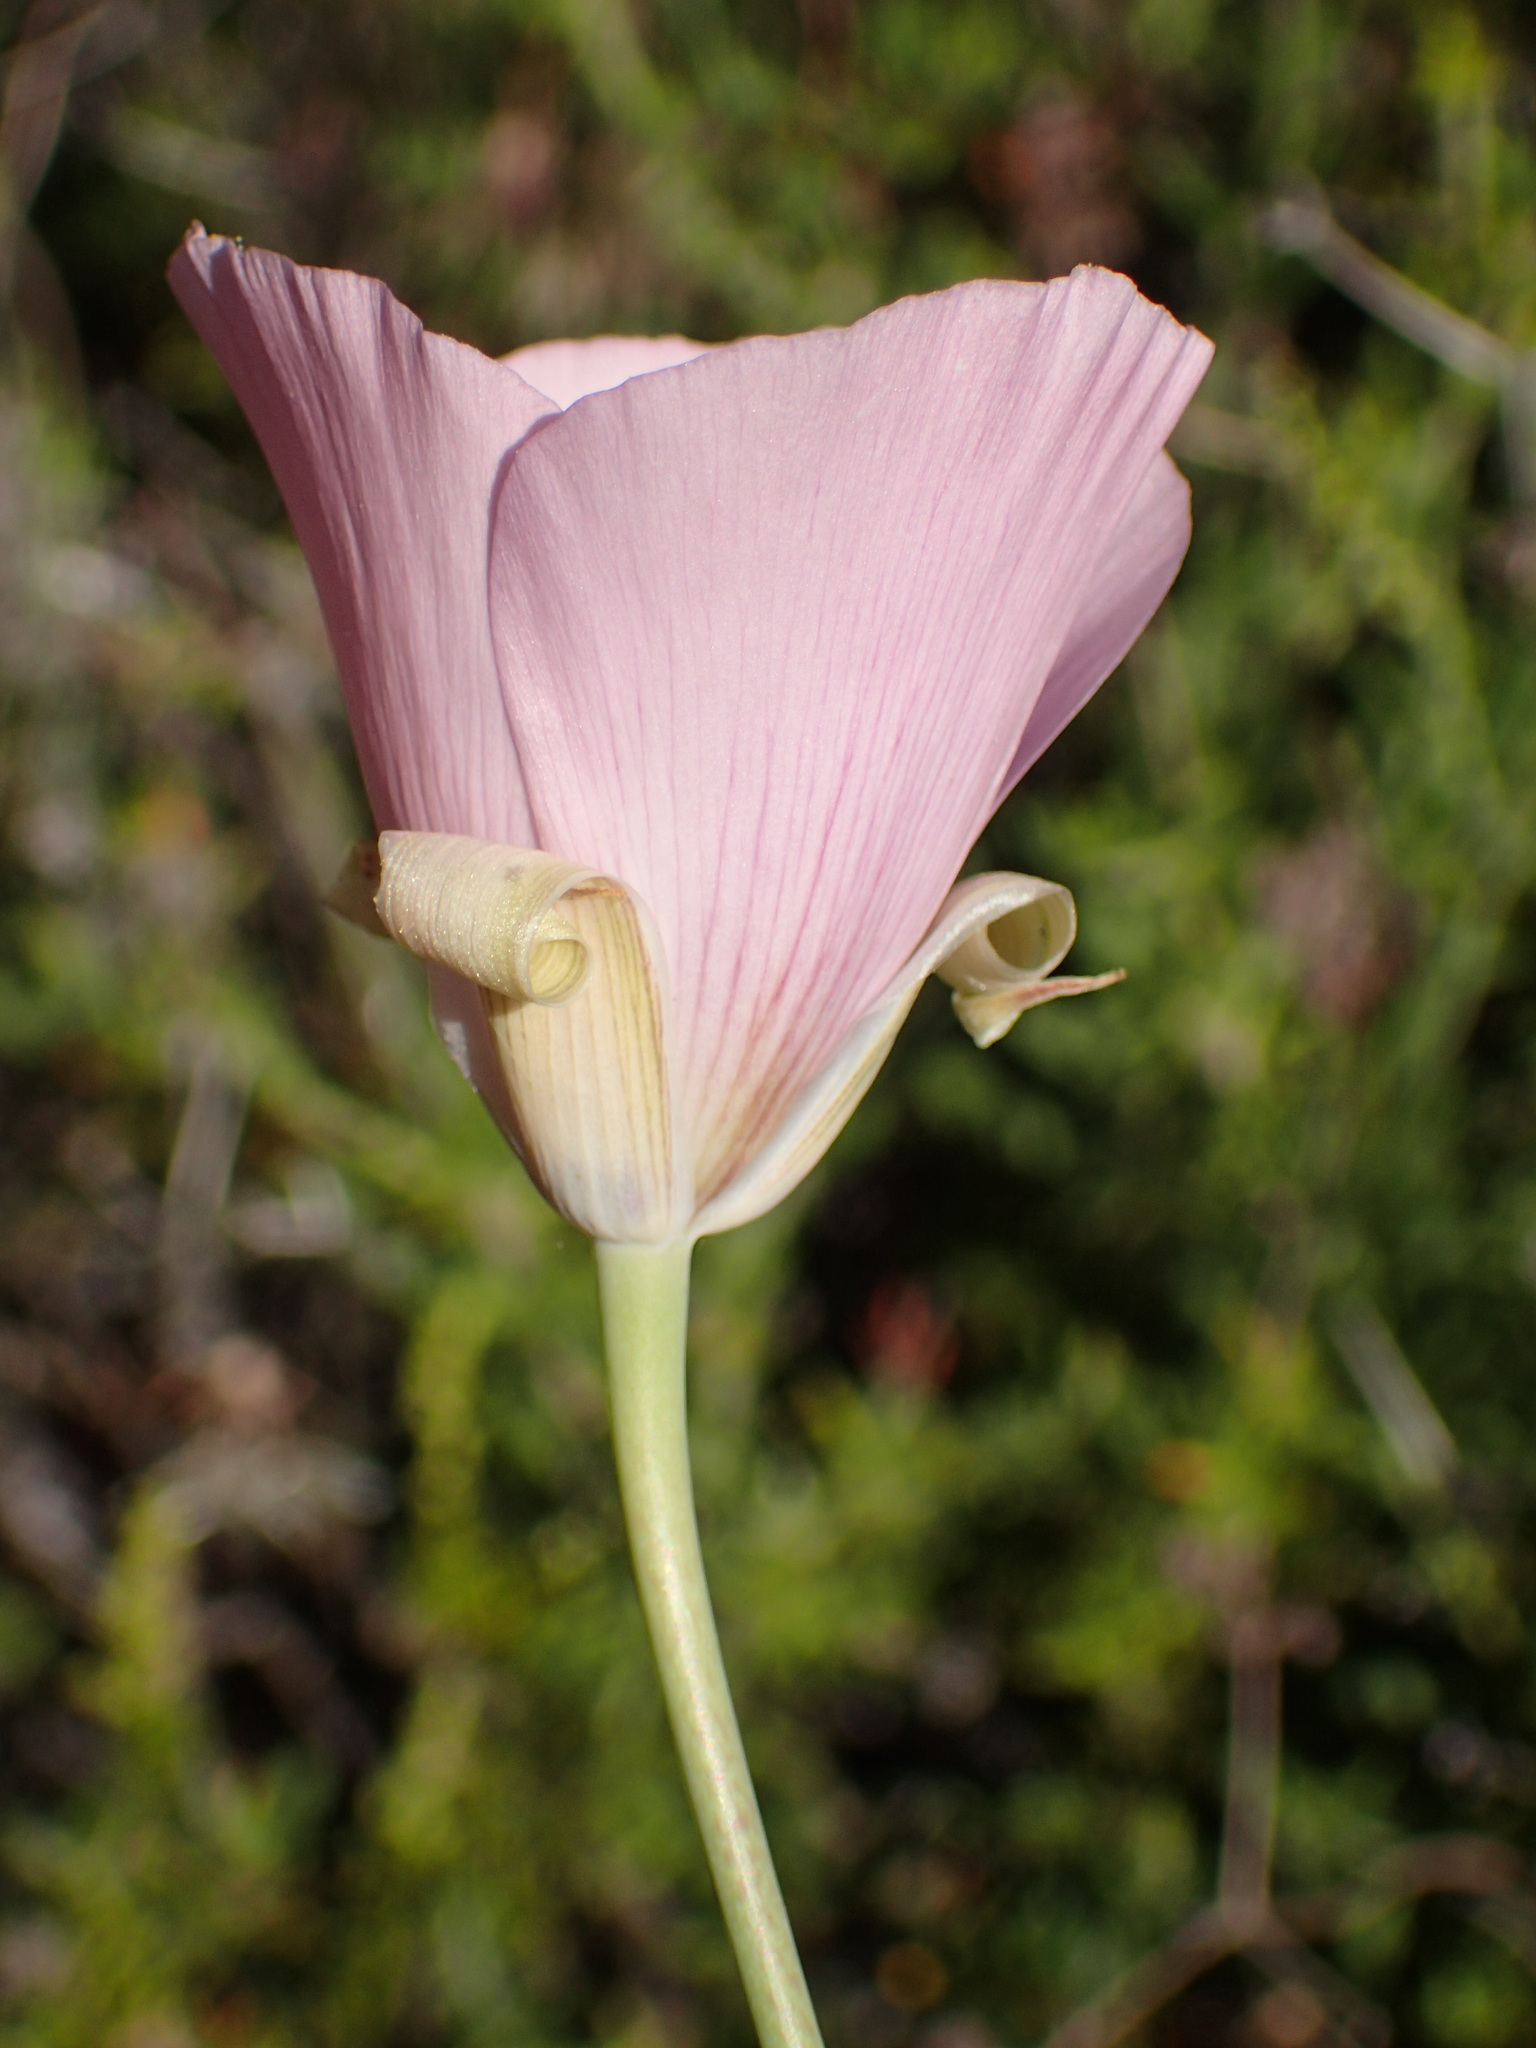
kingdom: Plantae
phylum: Tracheophyta
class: Liliopsida
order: Liliales
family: Liliaceae
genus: Calochortus
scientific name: Calochortus splendens
